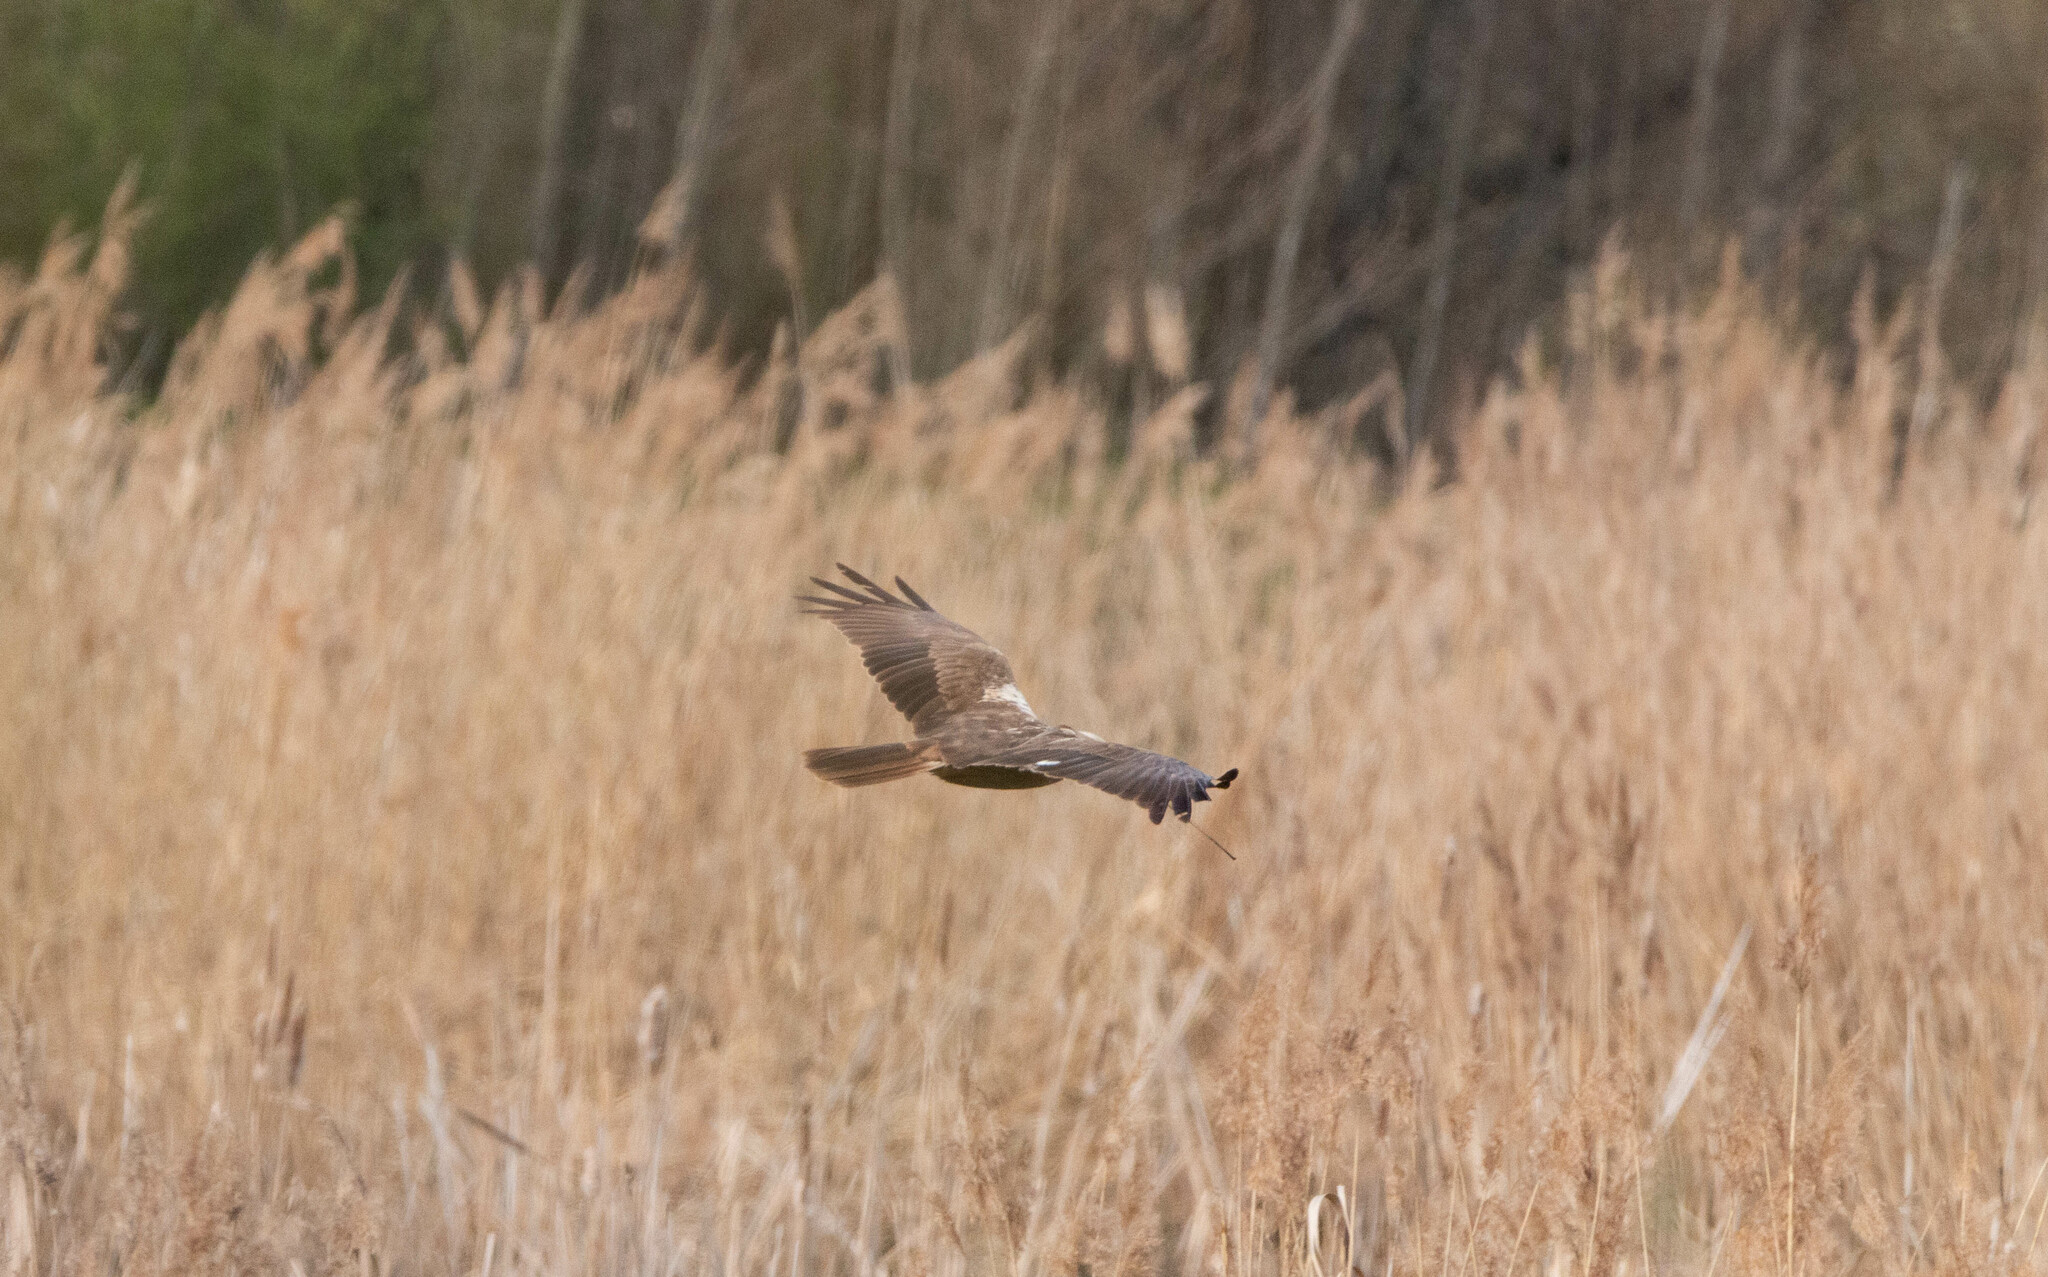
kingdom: Animalia
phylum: Chordata
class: Aves
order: Accipitriformes
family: Accipitridae
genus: Circus
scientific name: Circus aeruginosus
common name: Western marsh harrier
